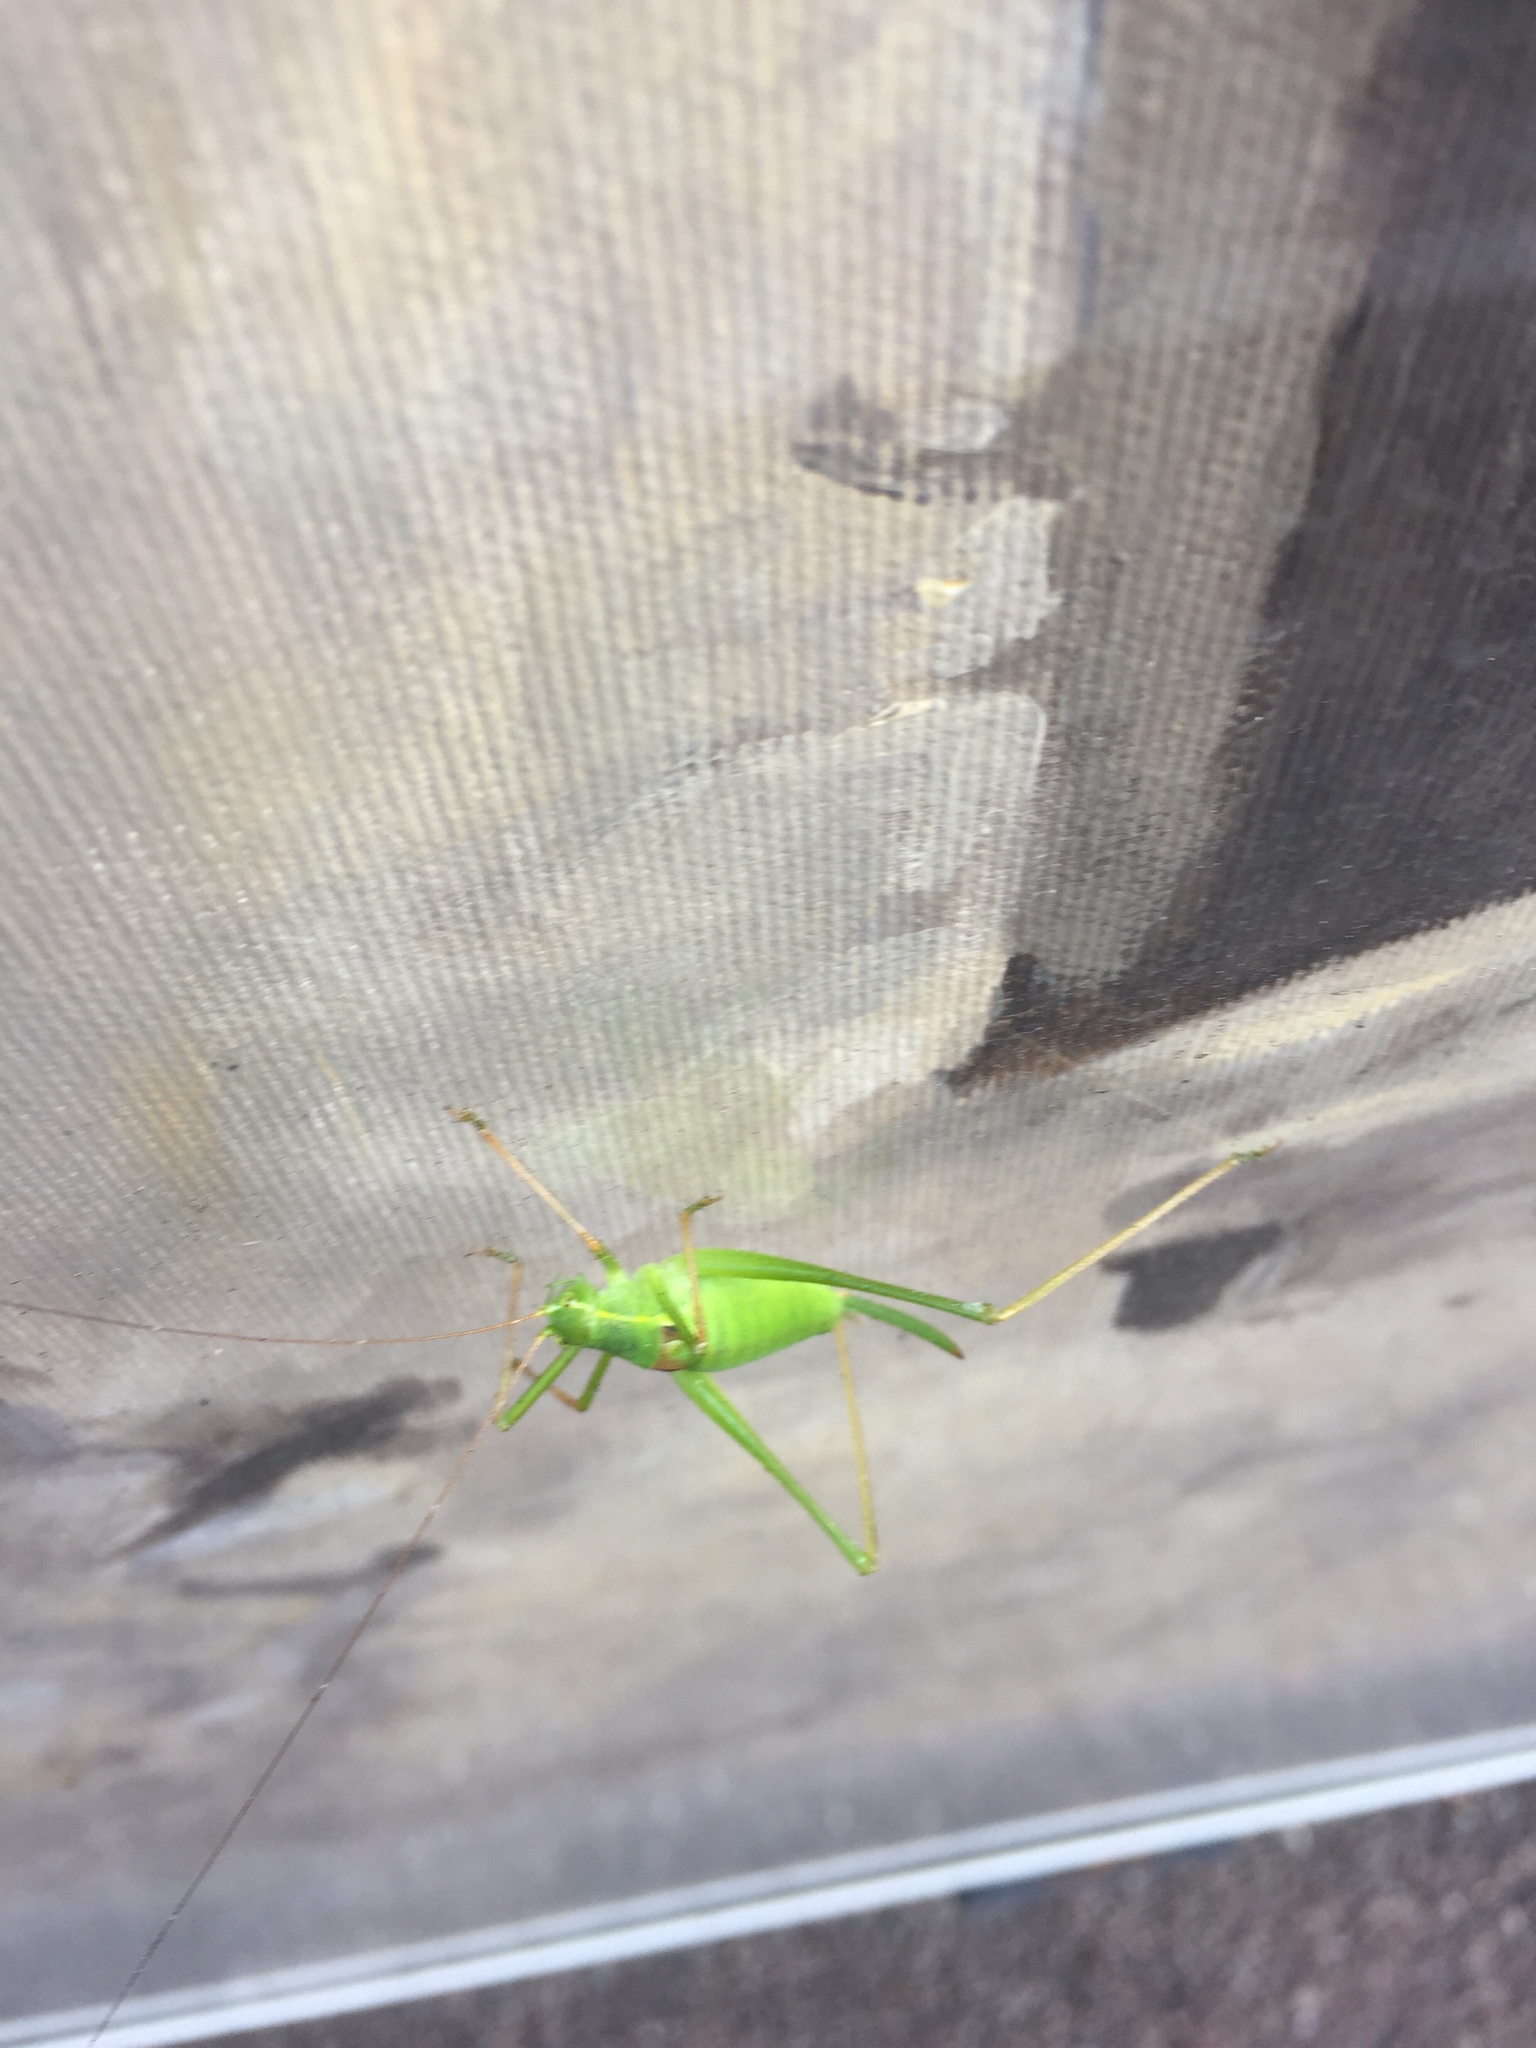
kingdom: Animalia
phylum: Arthropoda
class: Insecta
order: Orthoptera
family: Tettigoniidae
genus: Leptophyes
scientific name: Leptophyes laticauda
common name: Long-tailed speckled bush-cricket
